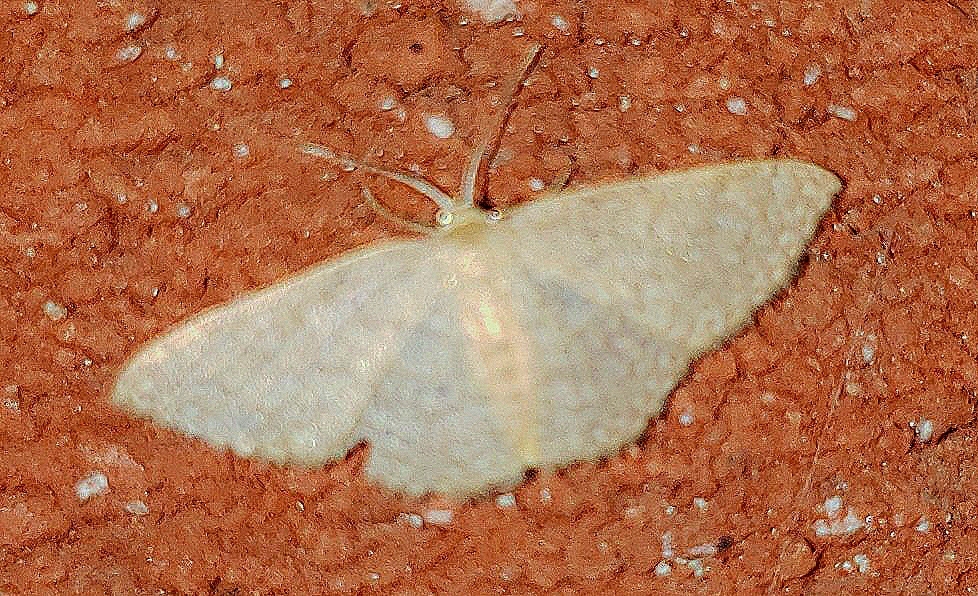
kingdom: Animalia
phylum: Arthropoda
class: Insecta
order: Lepidoptera
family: Geometridae
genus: Pleuroprucha
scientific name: Pleuroprucha insulsaria
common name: Common tan wave
